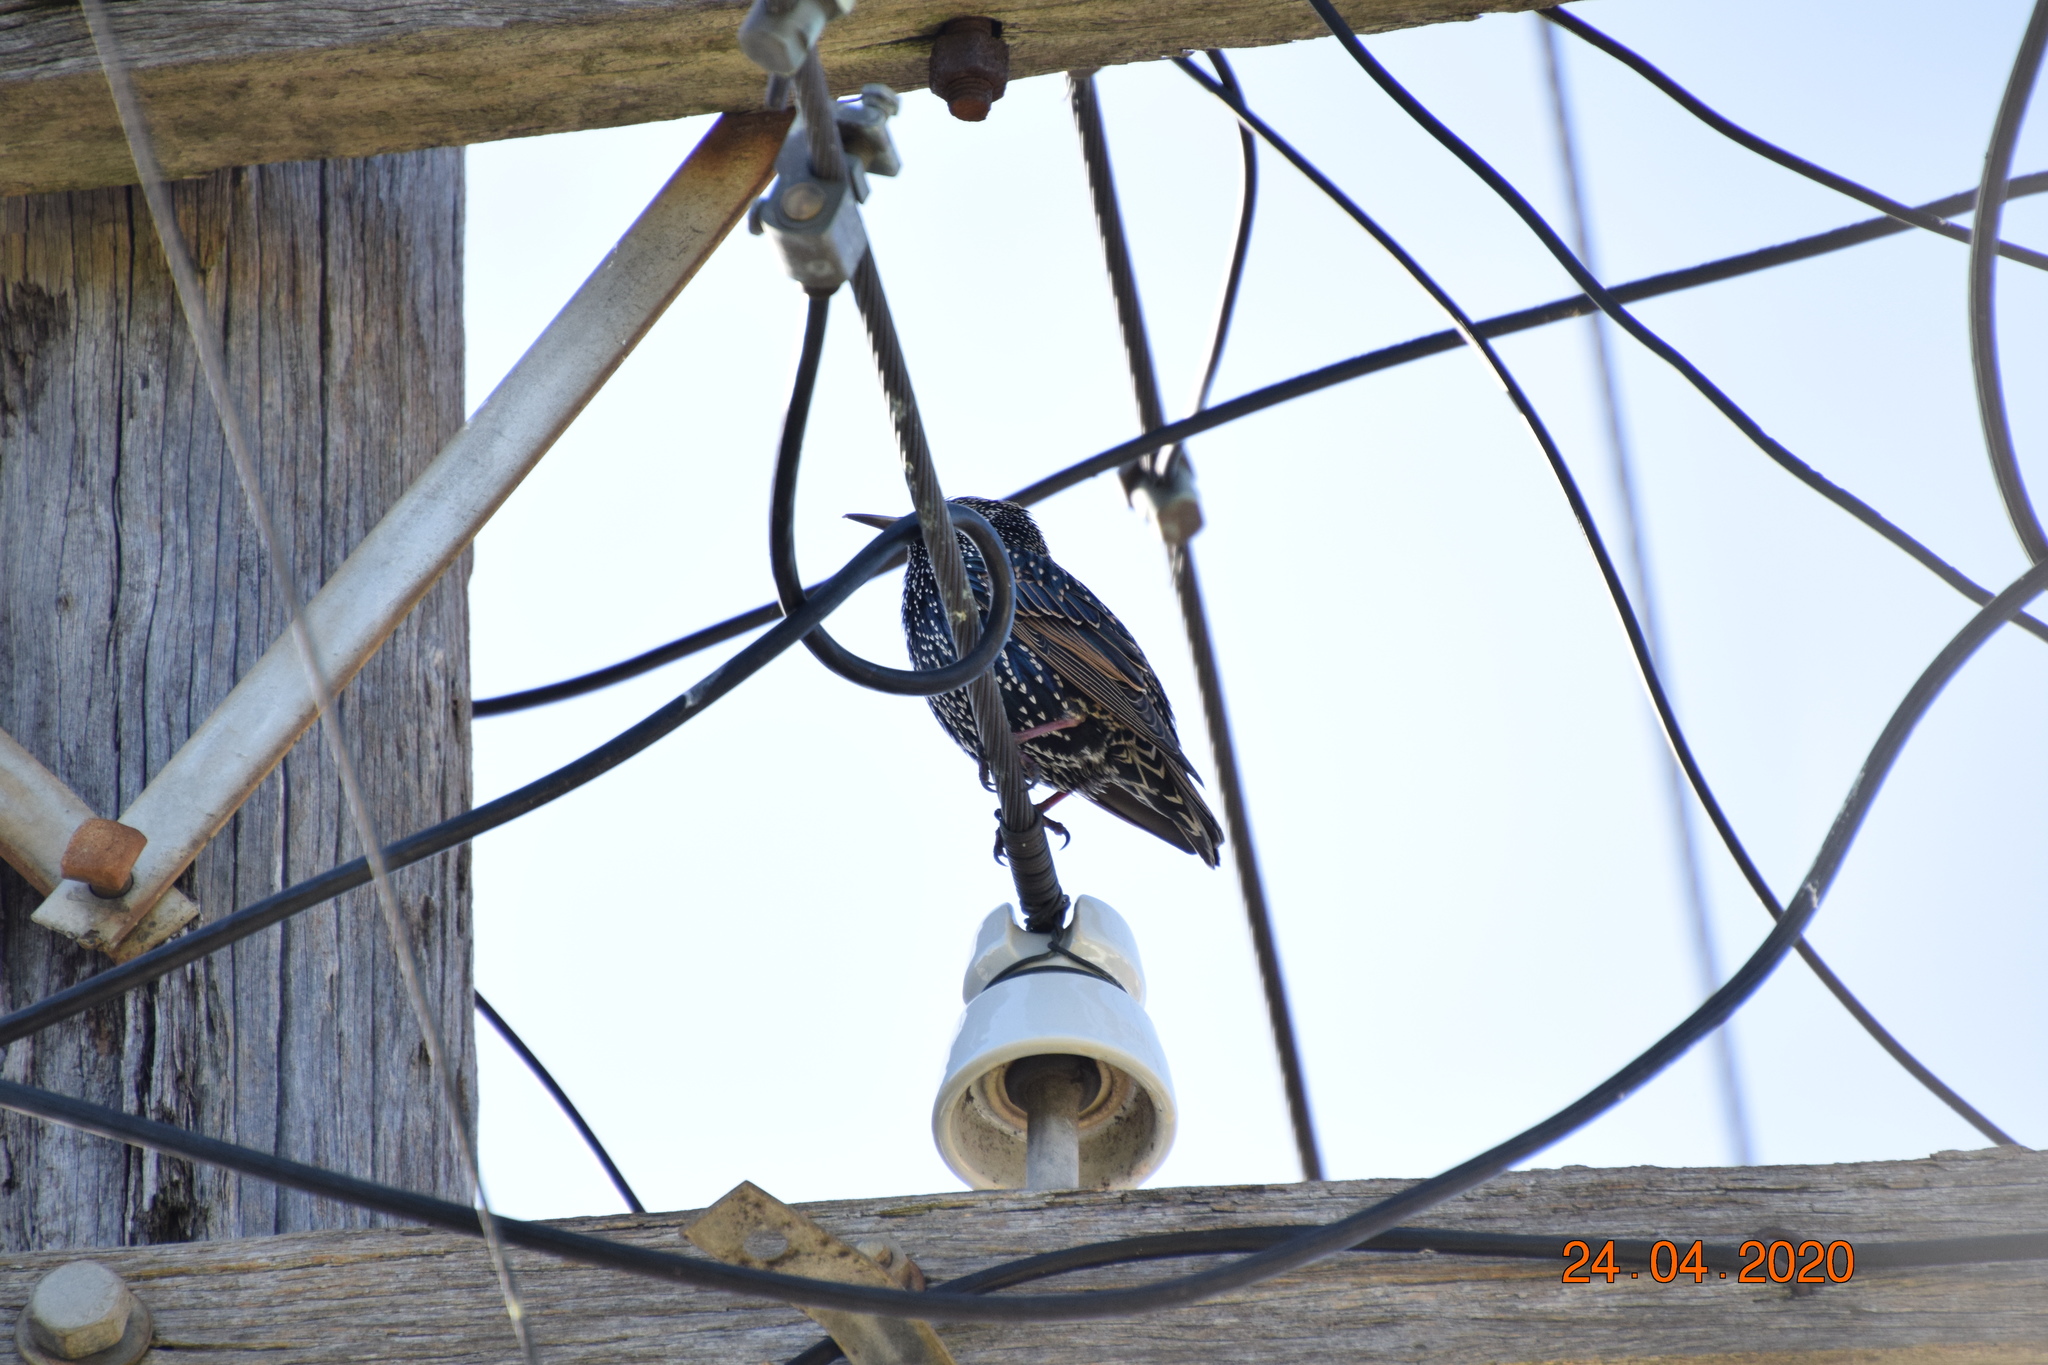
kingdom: Animalia
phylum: Chordata
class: Aves
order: Passeriformes
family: Sturnidae
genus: Sturnus
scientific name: Sturnus vulgaris
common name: Common starling
